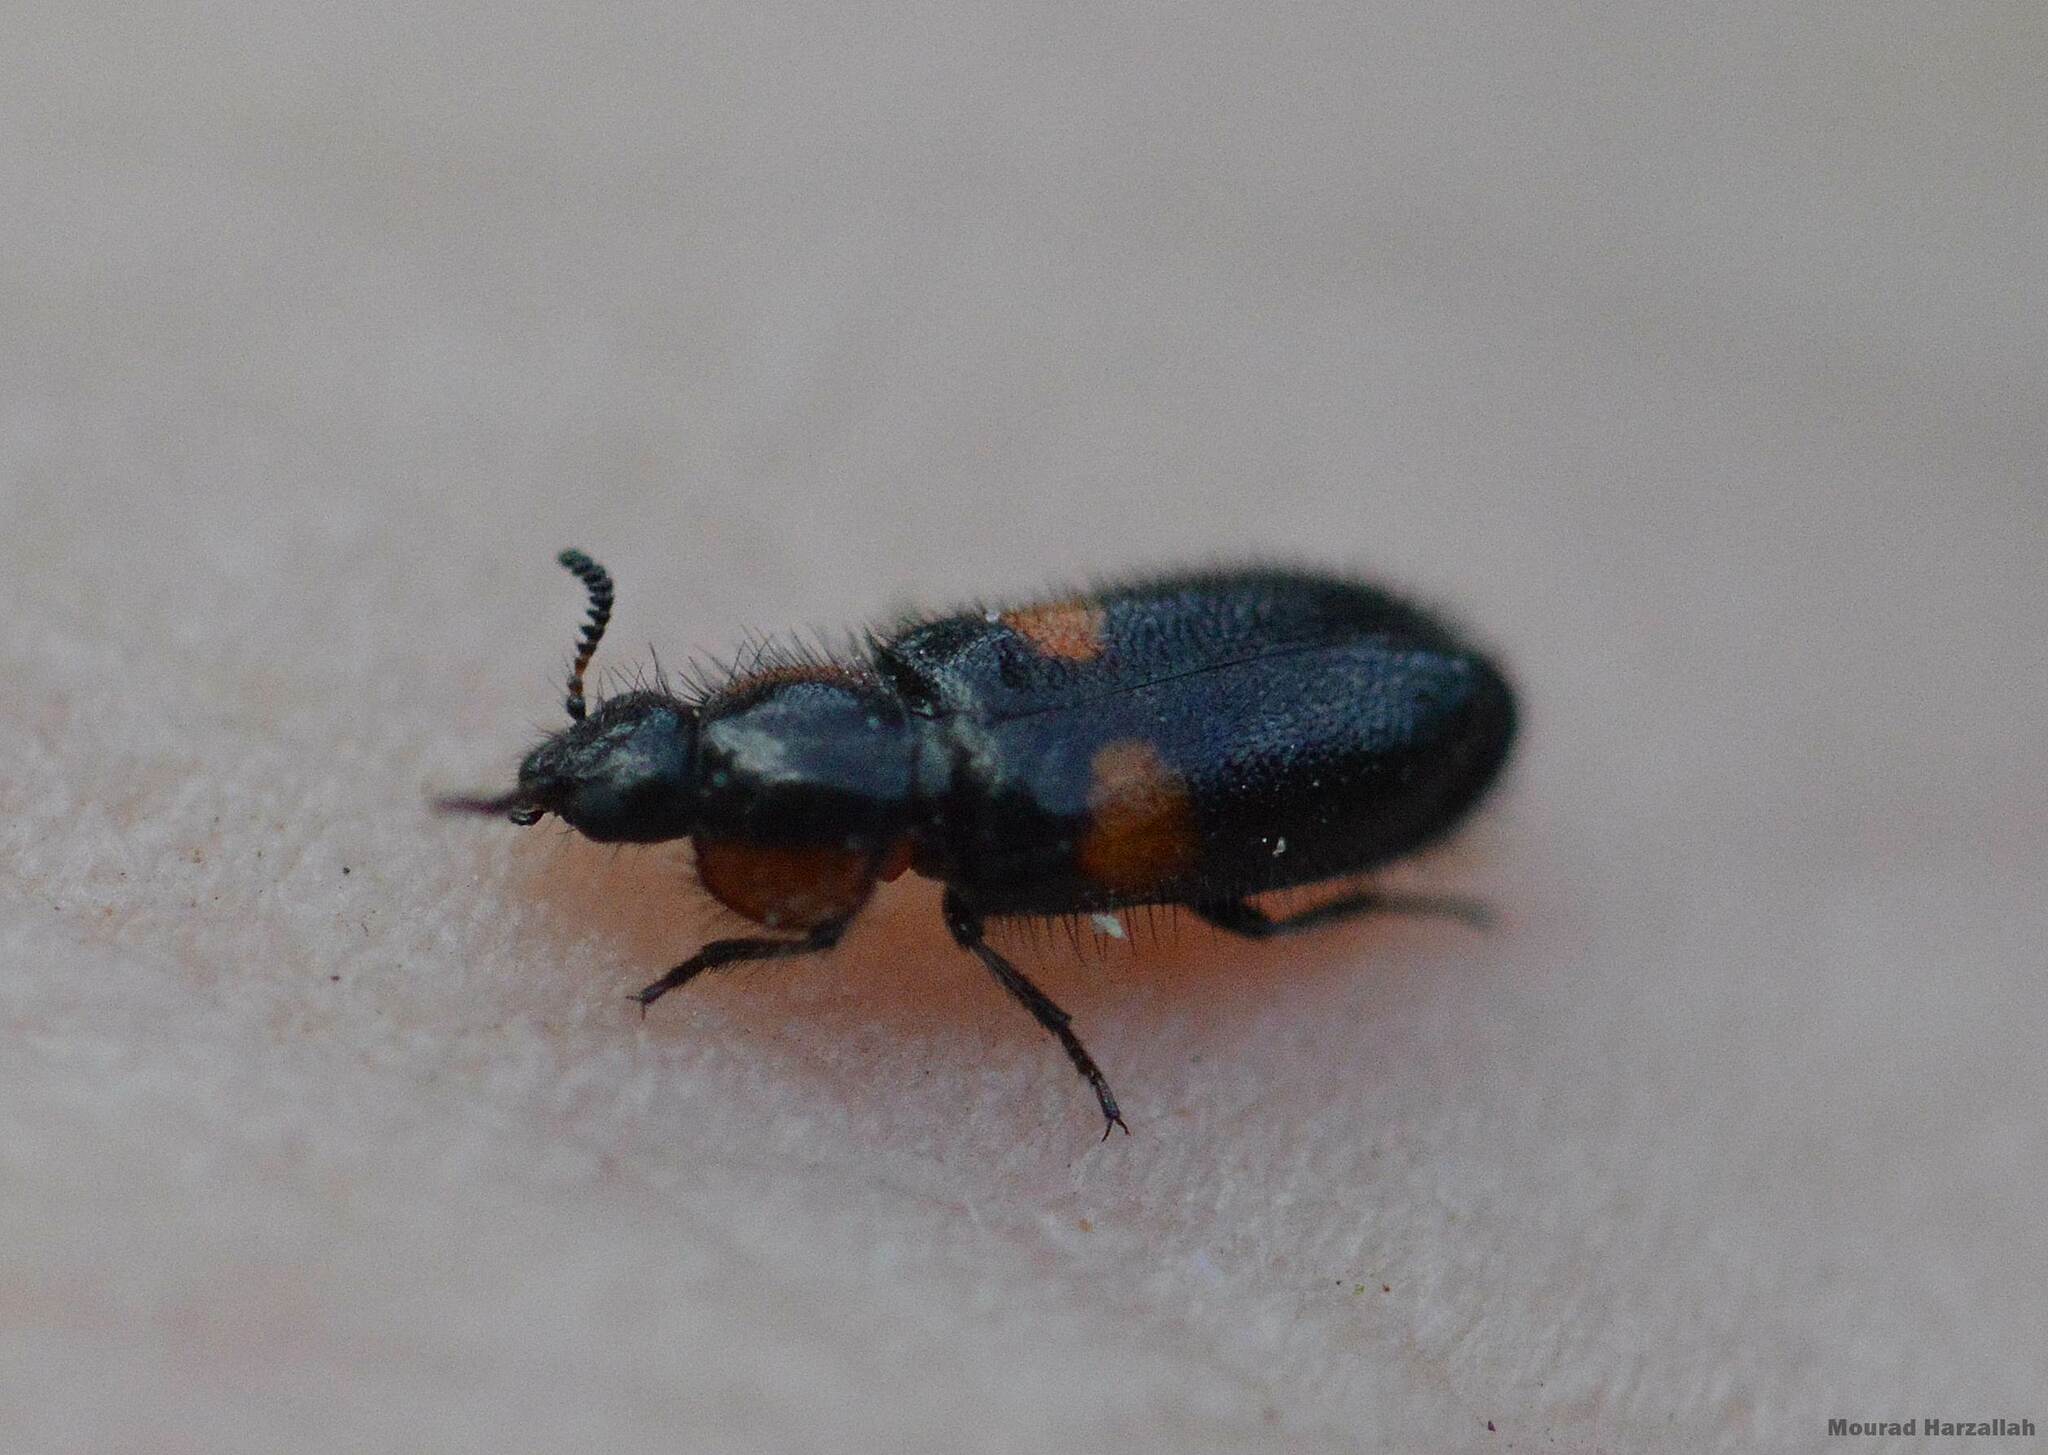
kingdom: Animalia
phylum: Arthropoda
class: Insecta
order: Coleoptera
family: Melyridae
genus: Divales
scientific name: Divales bipustulatus
